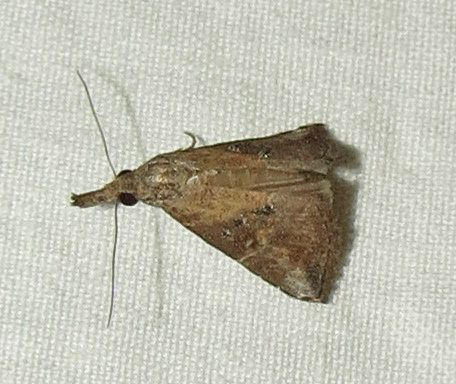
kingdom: Animalia
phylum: Arthropoda
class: Insecta
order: Lepidoptera
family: Erebidae
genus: Hypena
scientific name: Hypena minualis
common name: Sooty snout
